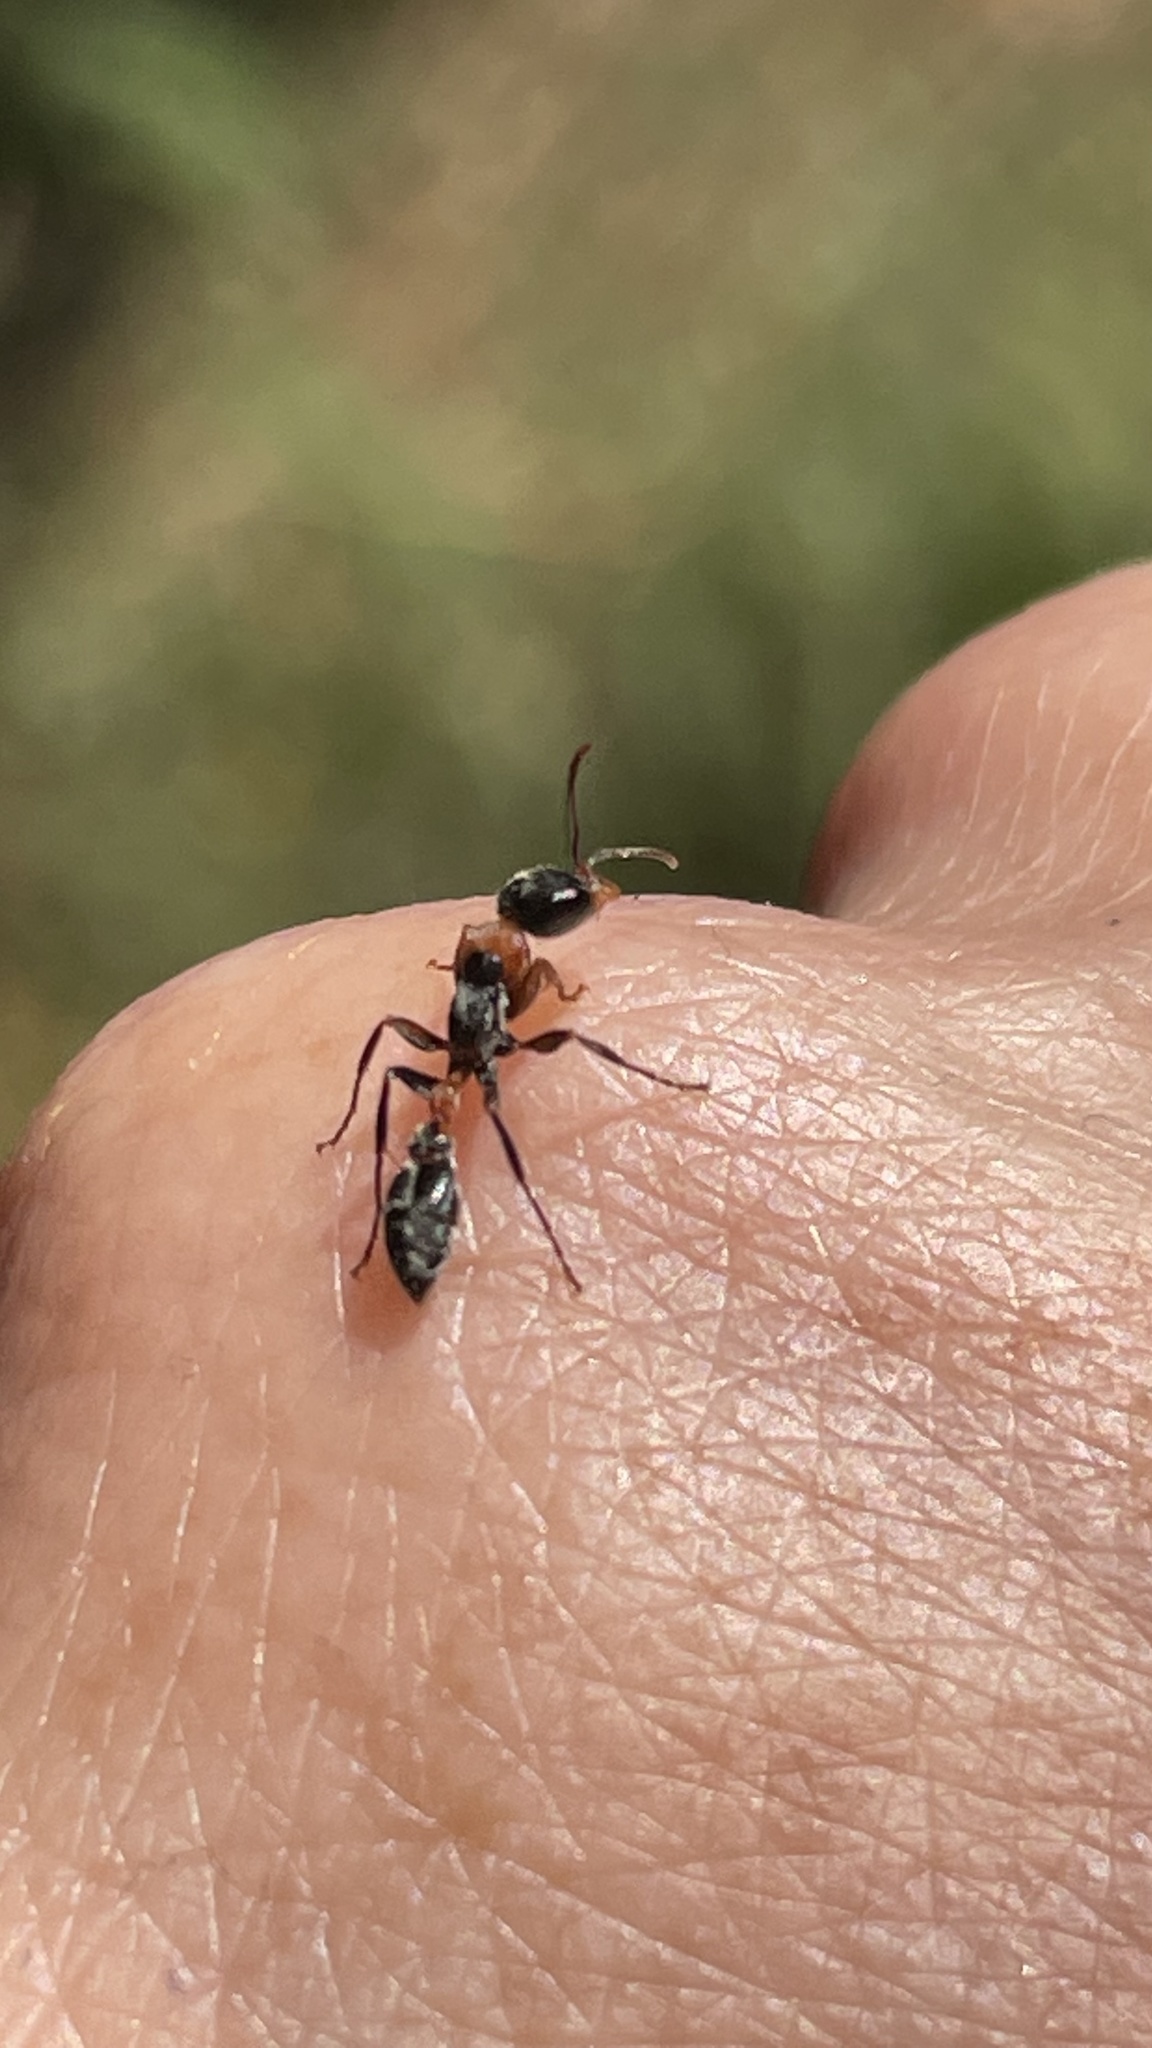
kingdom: Animalia
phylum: Arthropoda
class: Insecta
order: Hymenoptera
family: Formicidae
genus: Pseudomyrmex
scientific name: Pseudomyrmex gracilis
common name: Graceful twig ant
